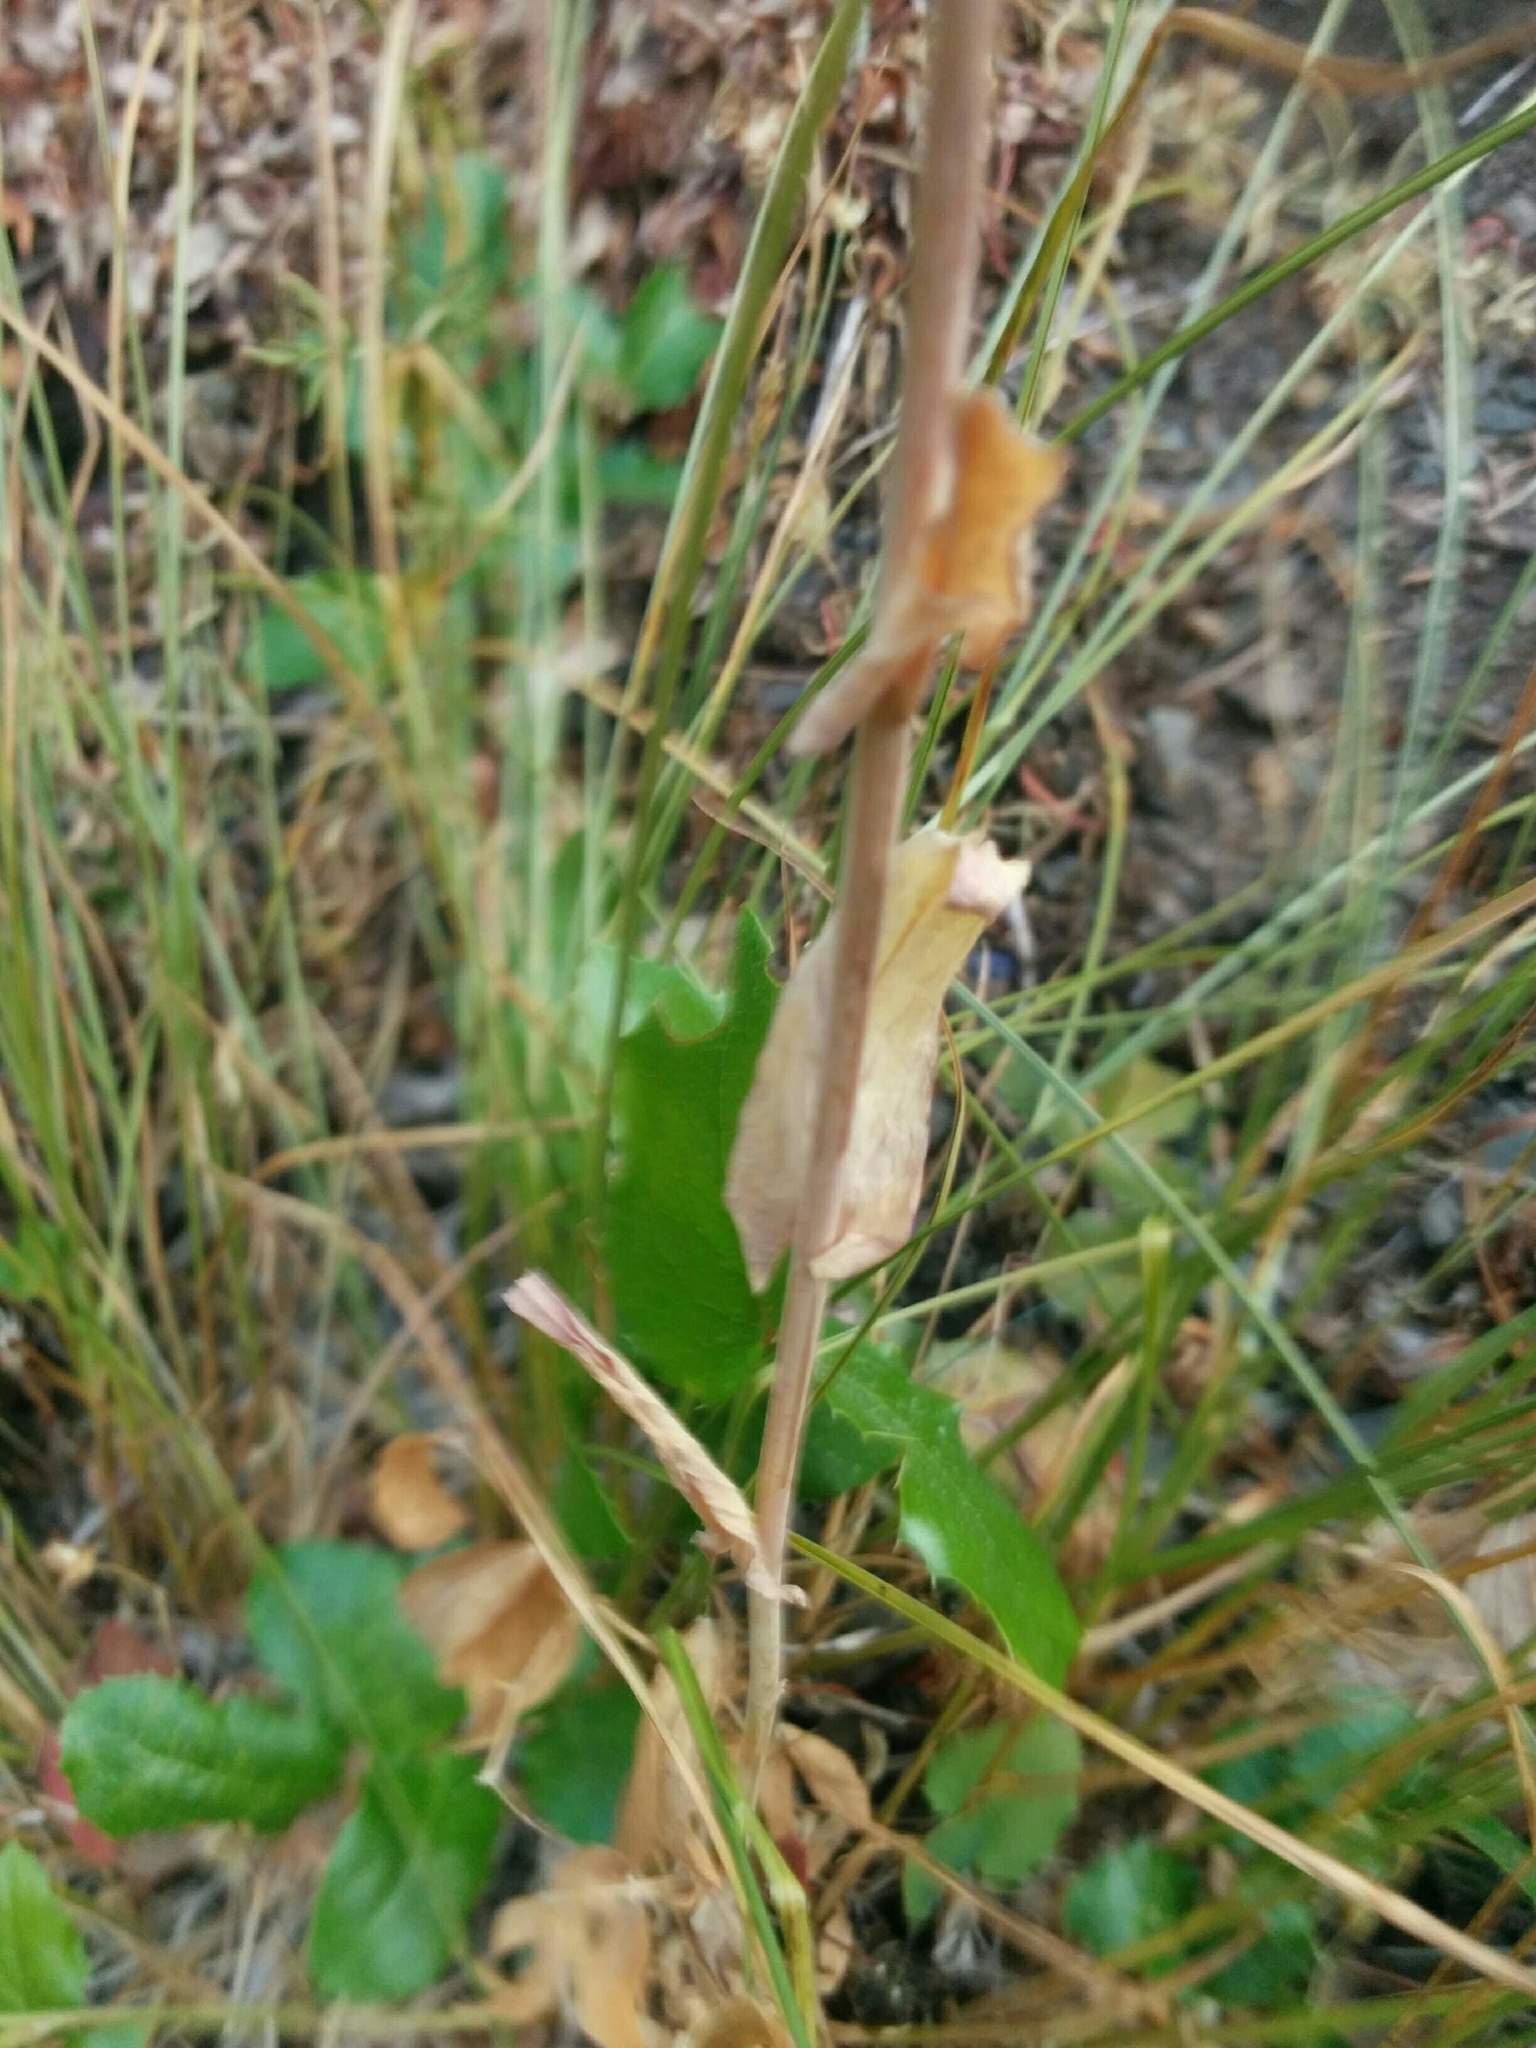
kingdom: Plantae
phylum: Tracheophyta
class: Magnoliopsida
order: Brassicales
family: Brassicaceae
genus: Turritis
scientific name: Turritis glabra
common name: Tower rockcress
